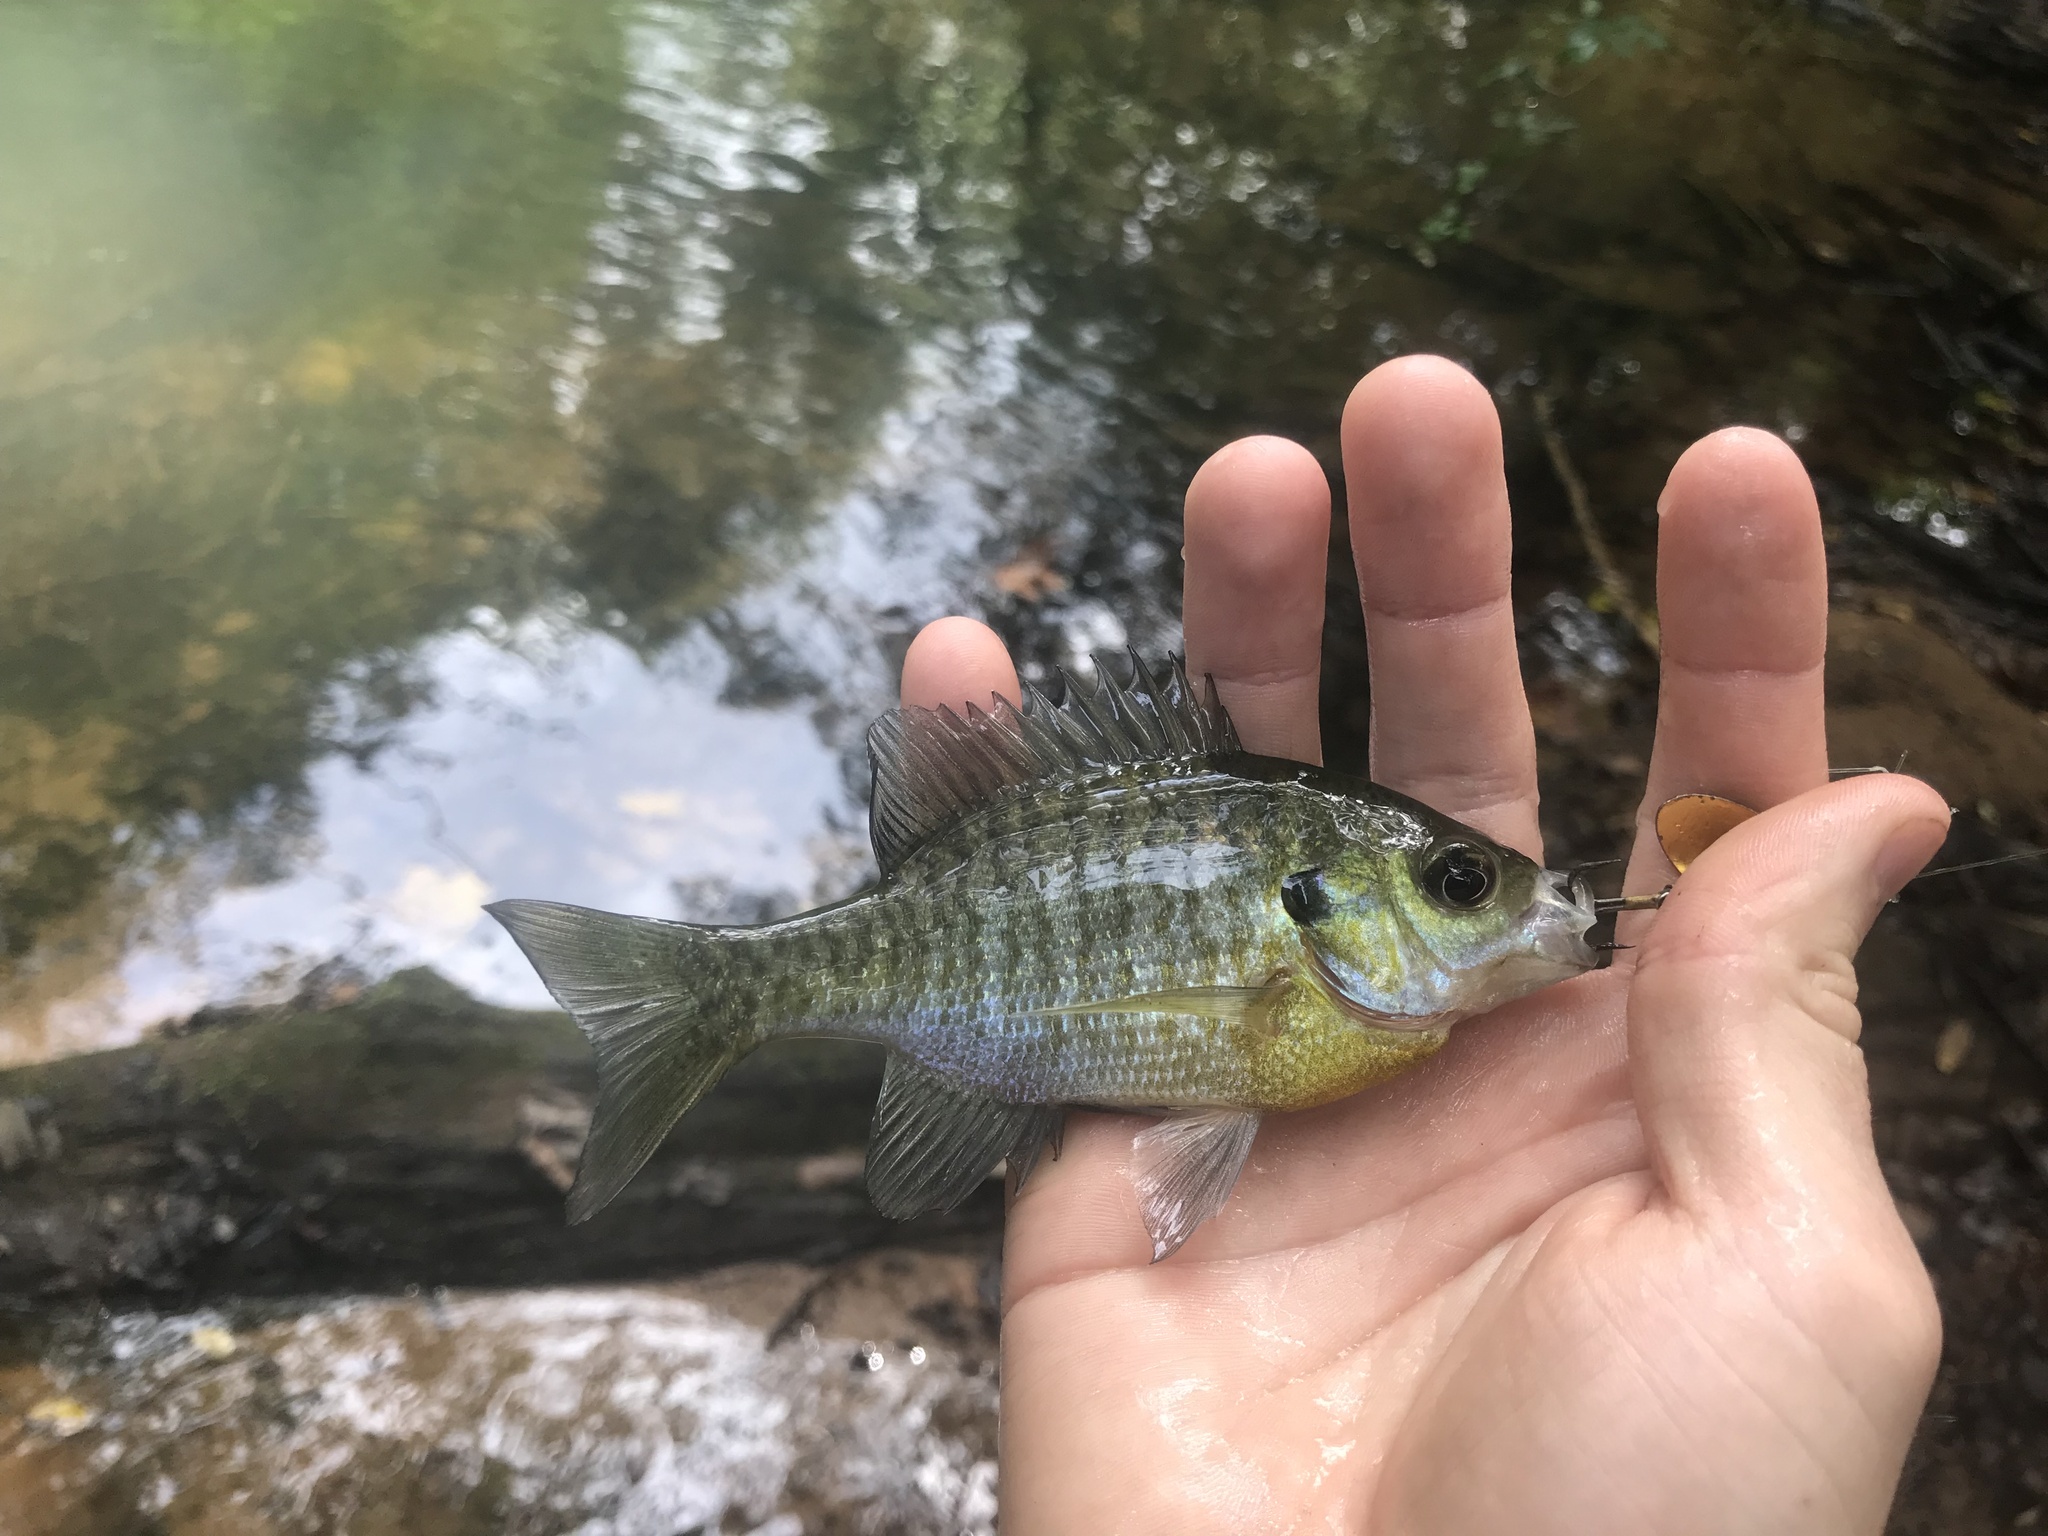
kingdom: Animalia
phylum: Chordata
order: Perciformes
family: Centrarchidae
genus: Lepomis
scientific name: Lepomis macrochirus
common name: Bluegill
